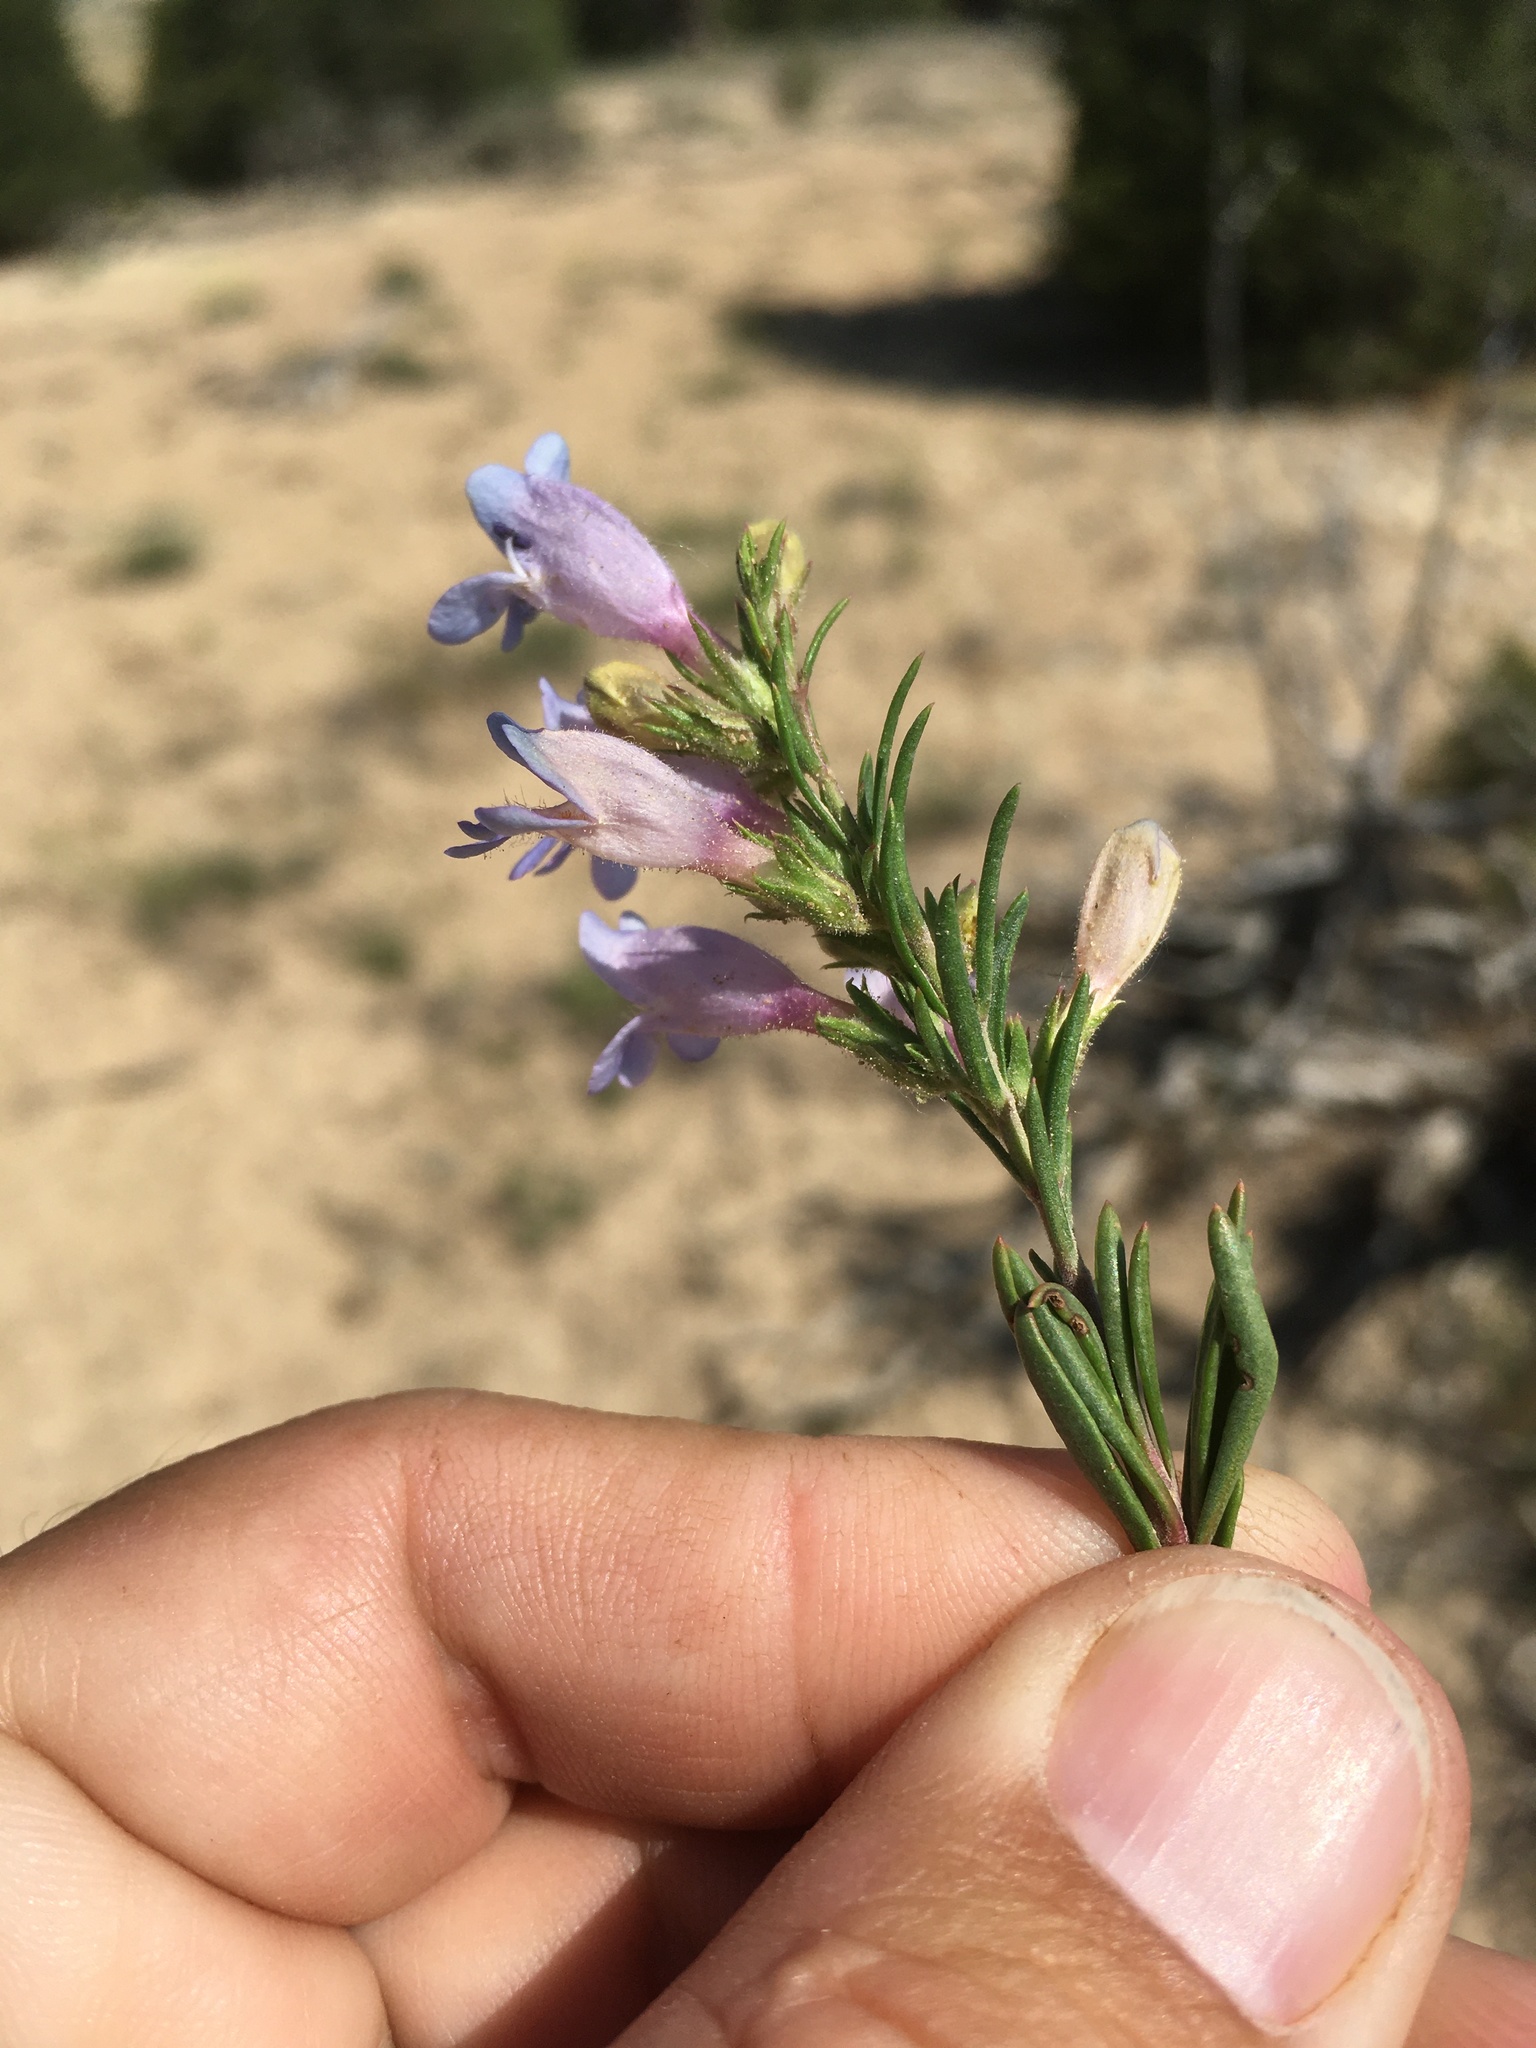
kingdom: Plantae
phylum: Tracheophyta
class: Magnoliopsida
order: Lamiales
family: Plantaginaceae
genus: Penstemon
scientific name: Penstemon crandallii
